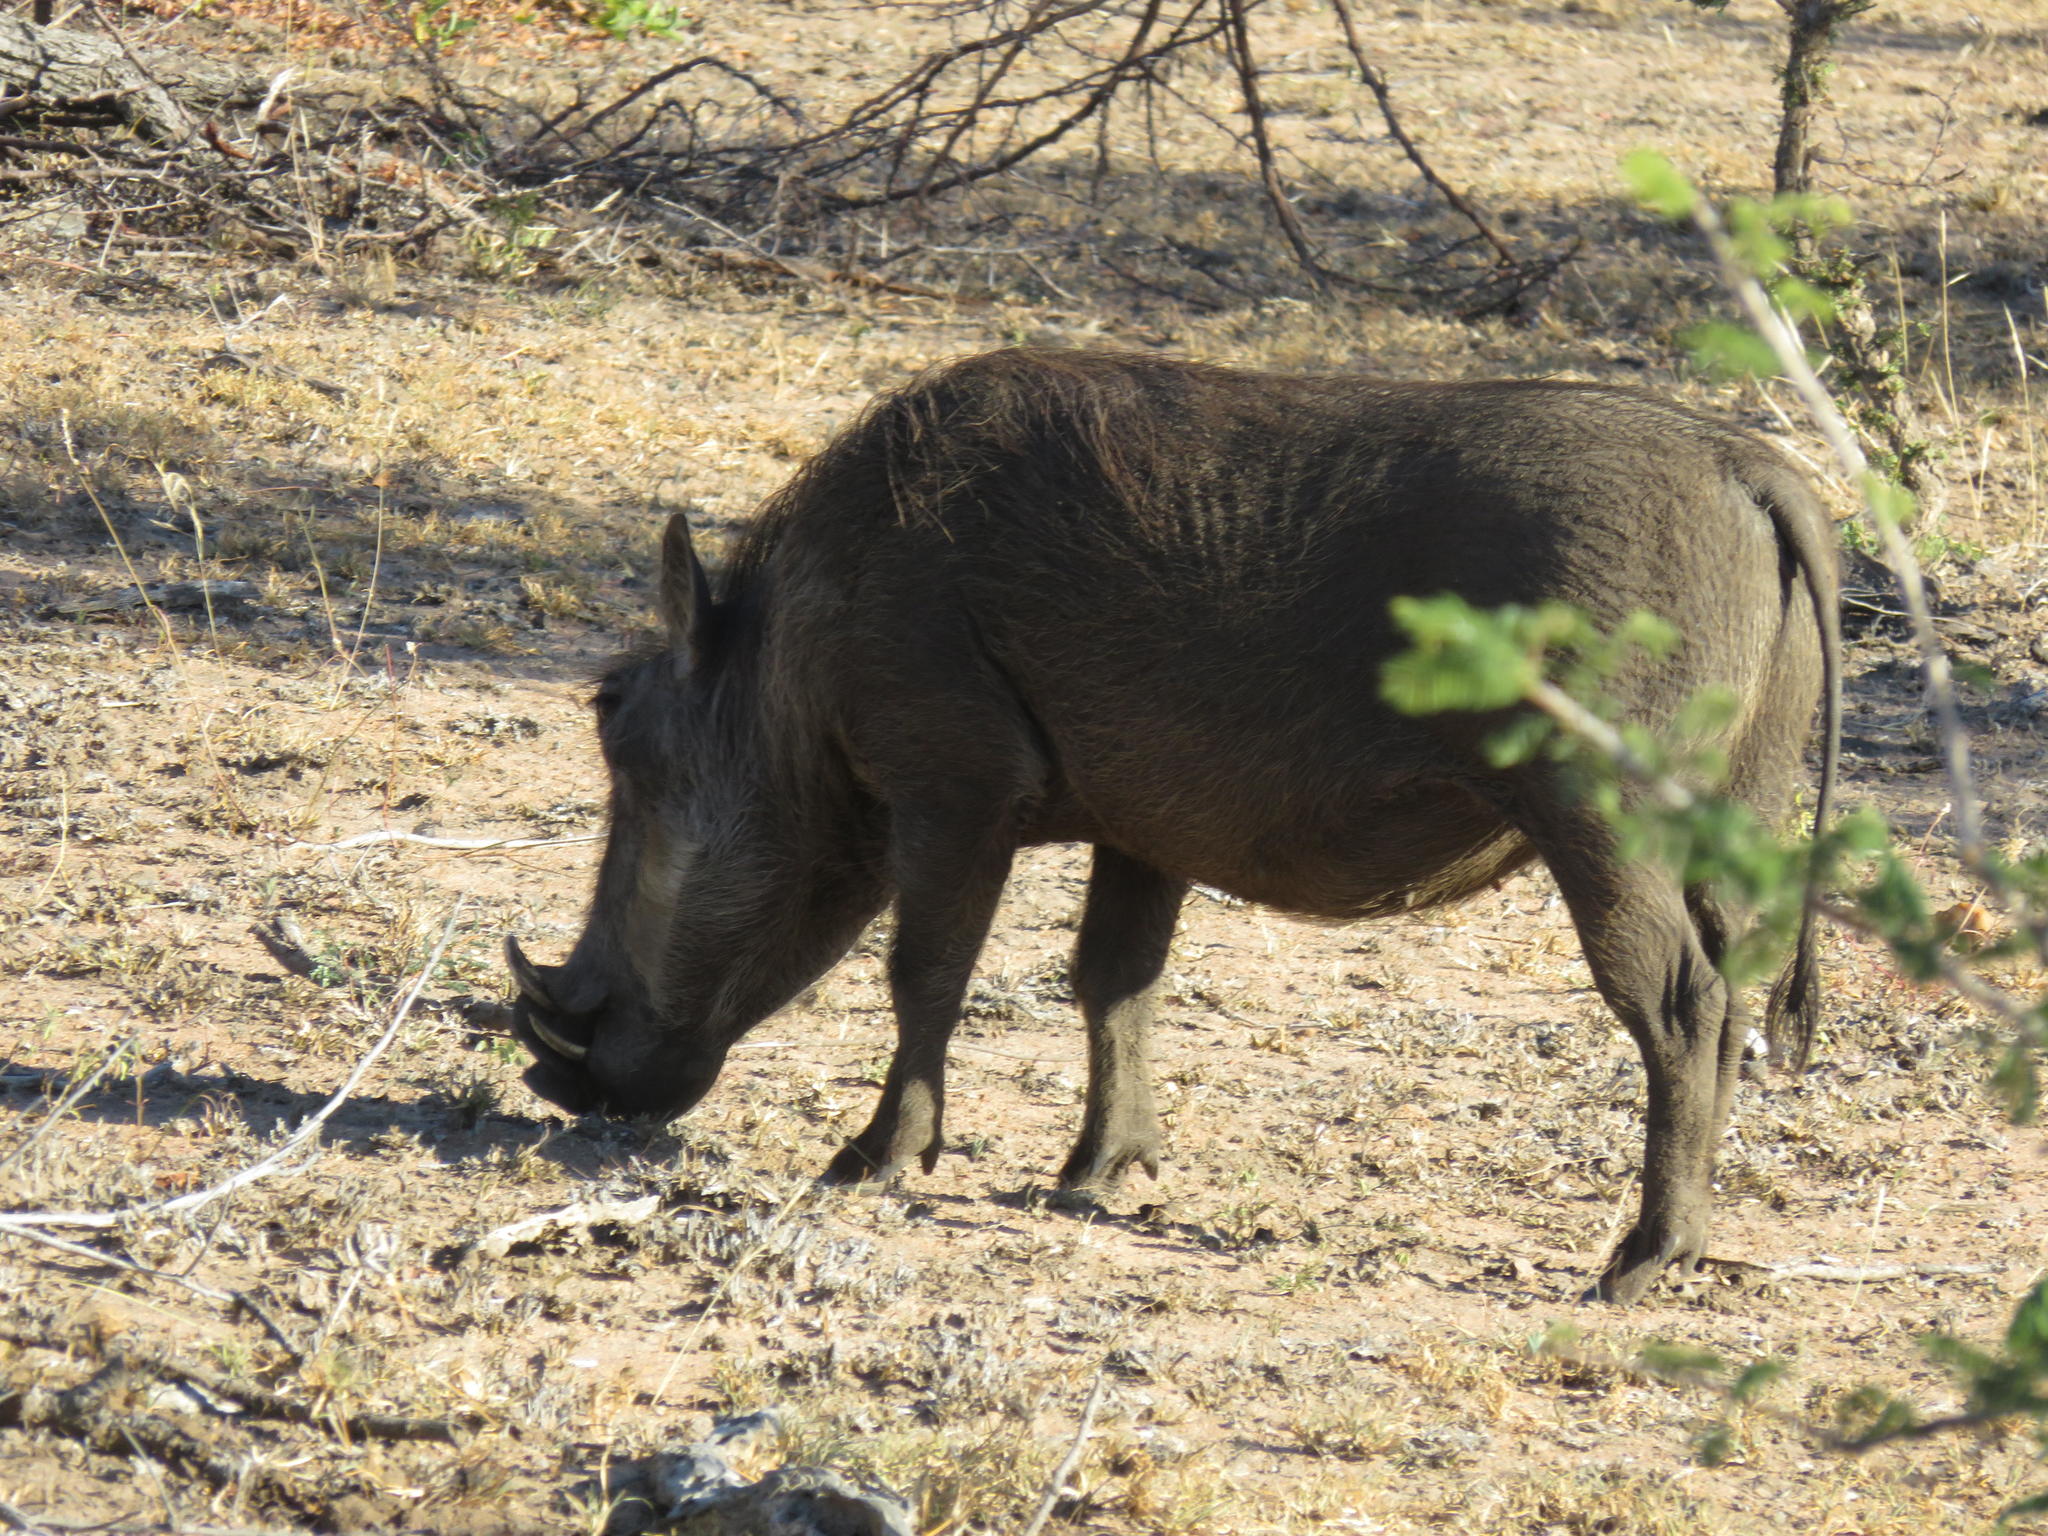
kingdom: Animalia
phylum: Chordata
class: Mammalia
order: Artiodactyla
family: Suidae
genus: Phacochoerus
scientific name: Phacochoerus africanus
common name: Common warthog
